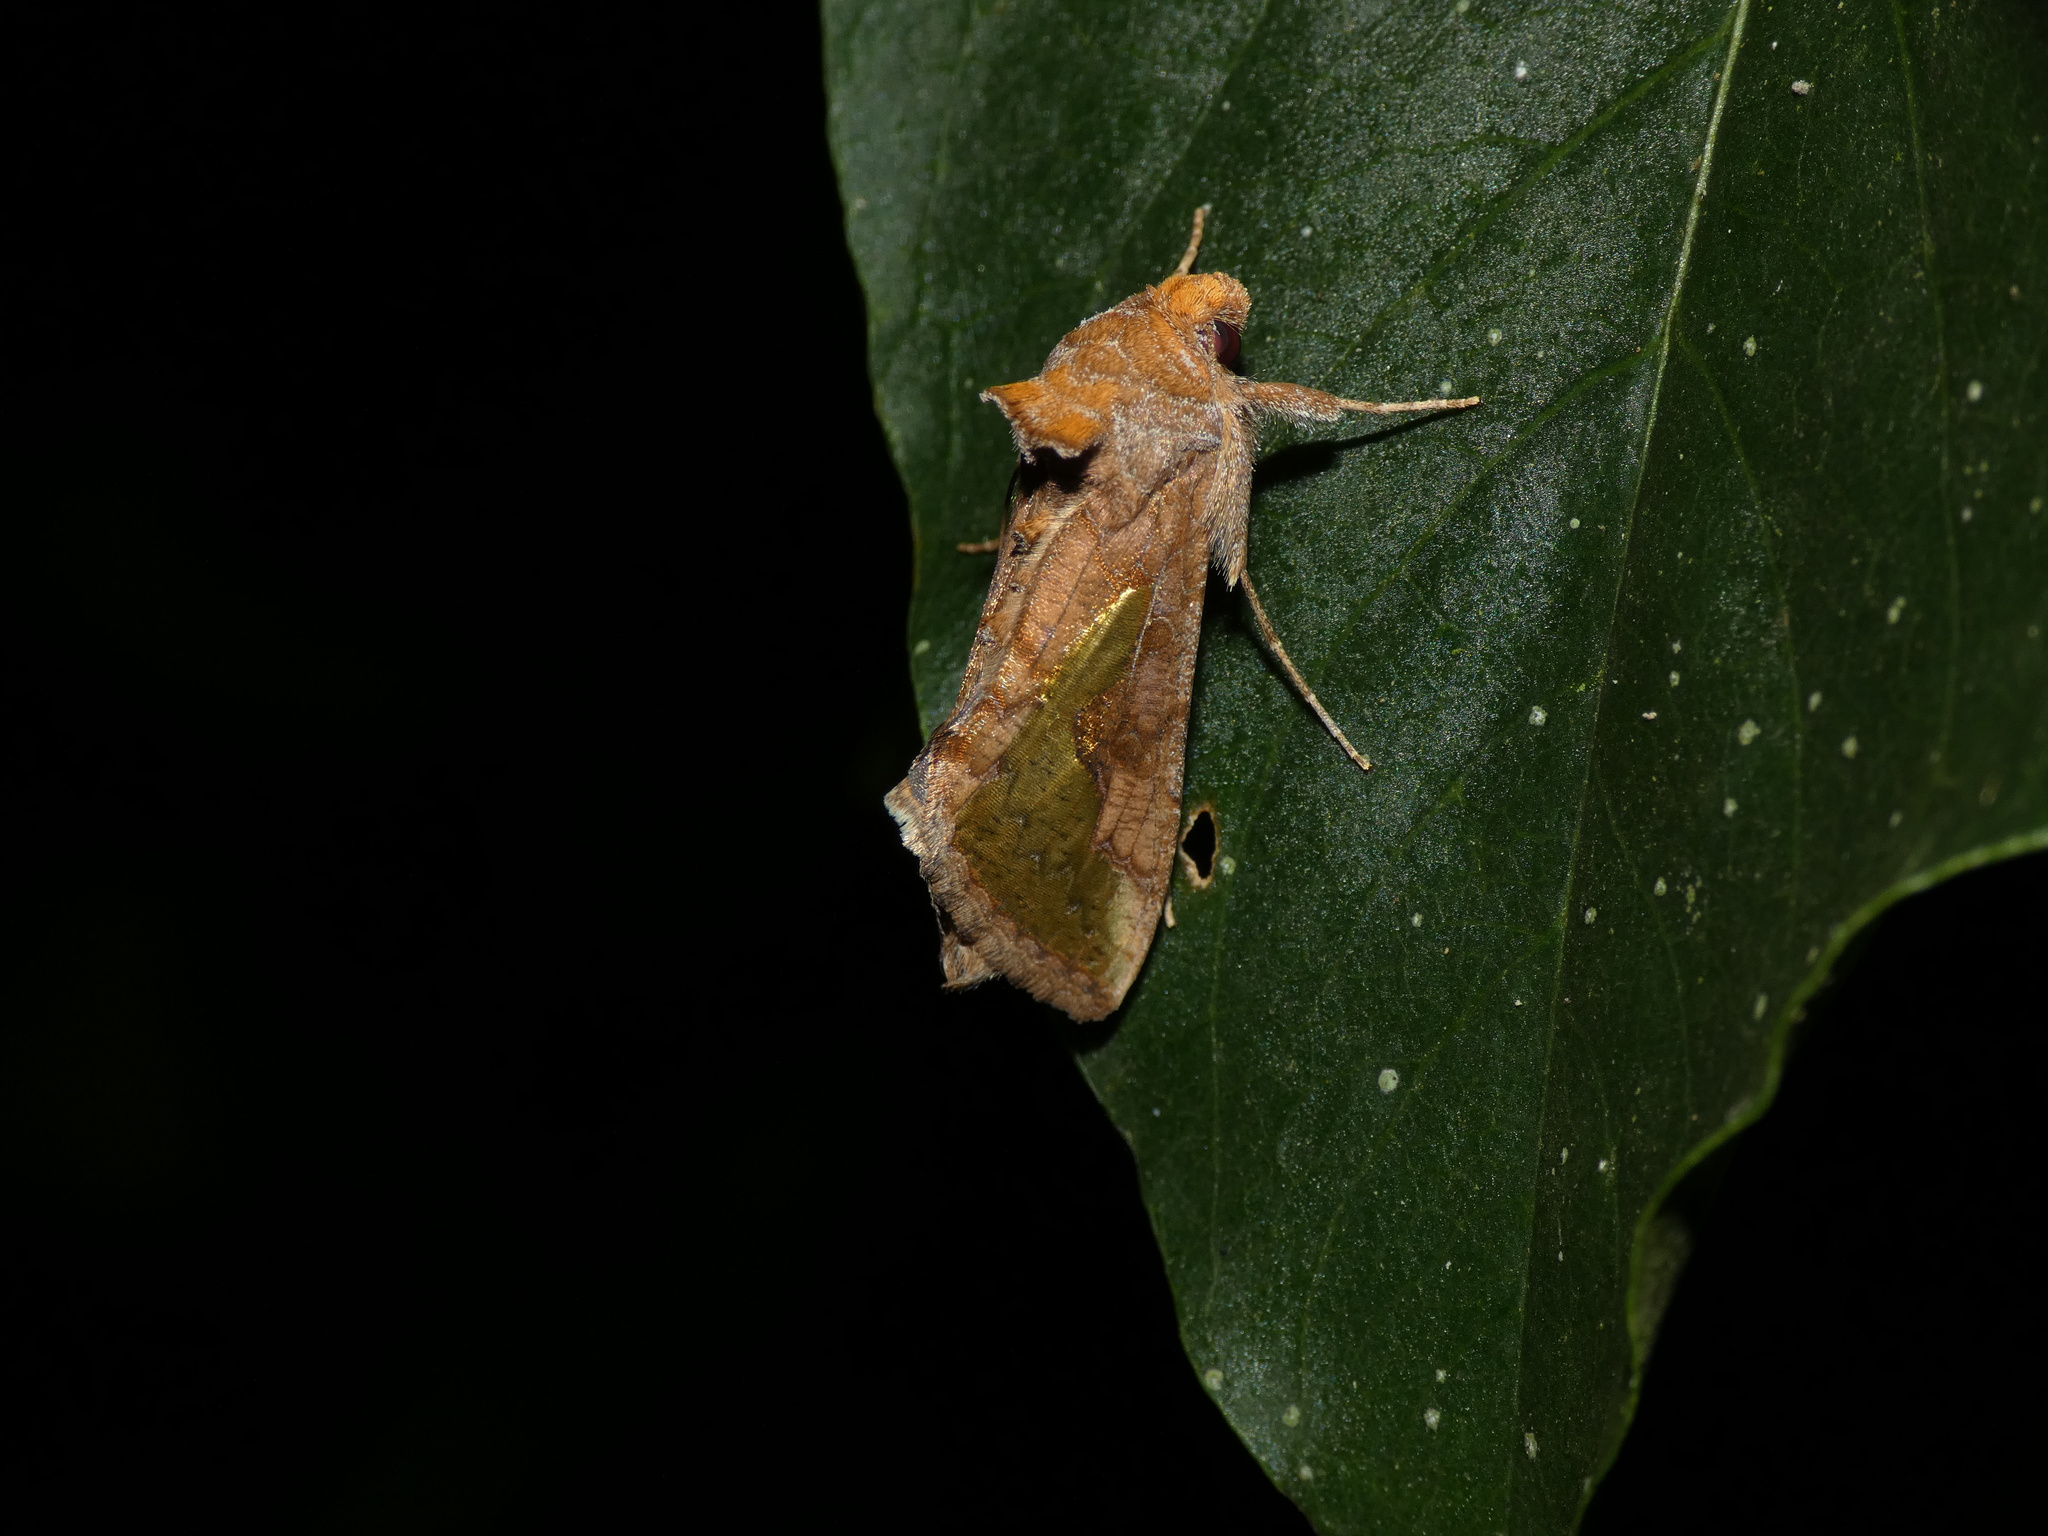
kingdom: Animalia
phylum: Arthropoda
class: Insecta
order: Lepidoptera
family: Noctuidae
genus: Thysanoplusia
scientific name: Thysanoplusia orichalcea
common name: Slender burnished brass, golden plusia
